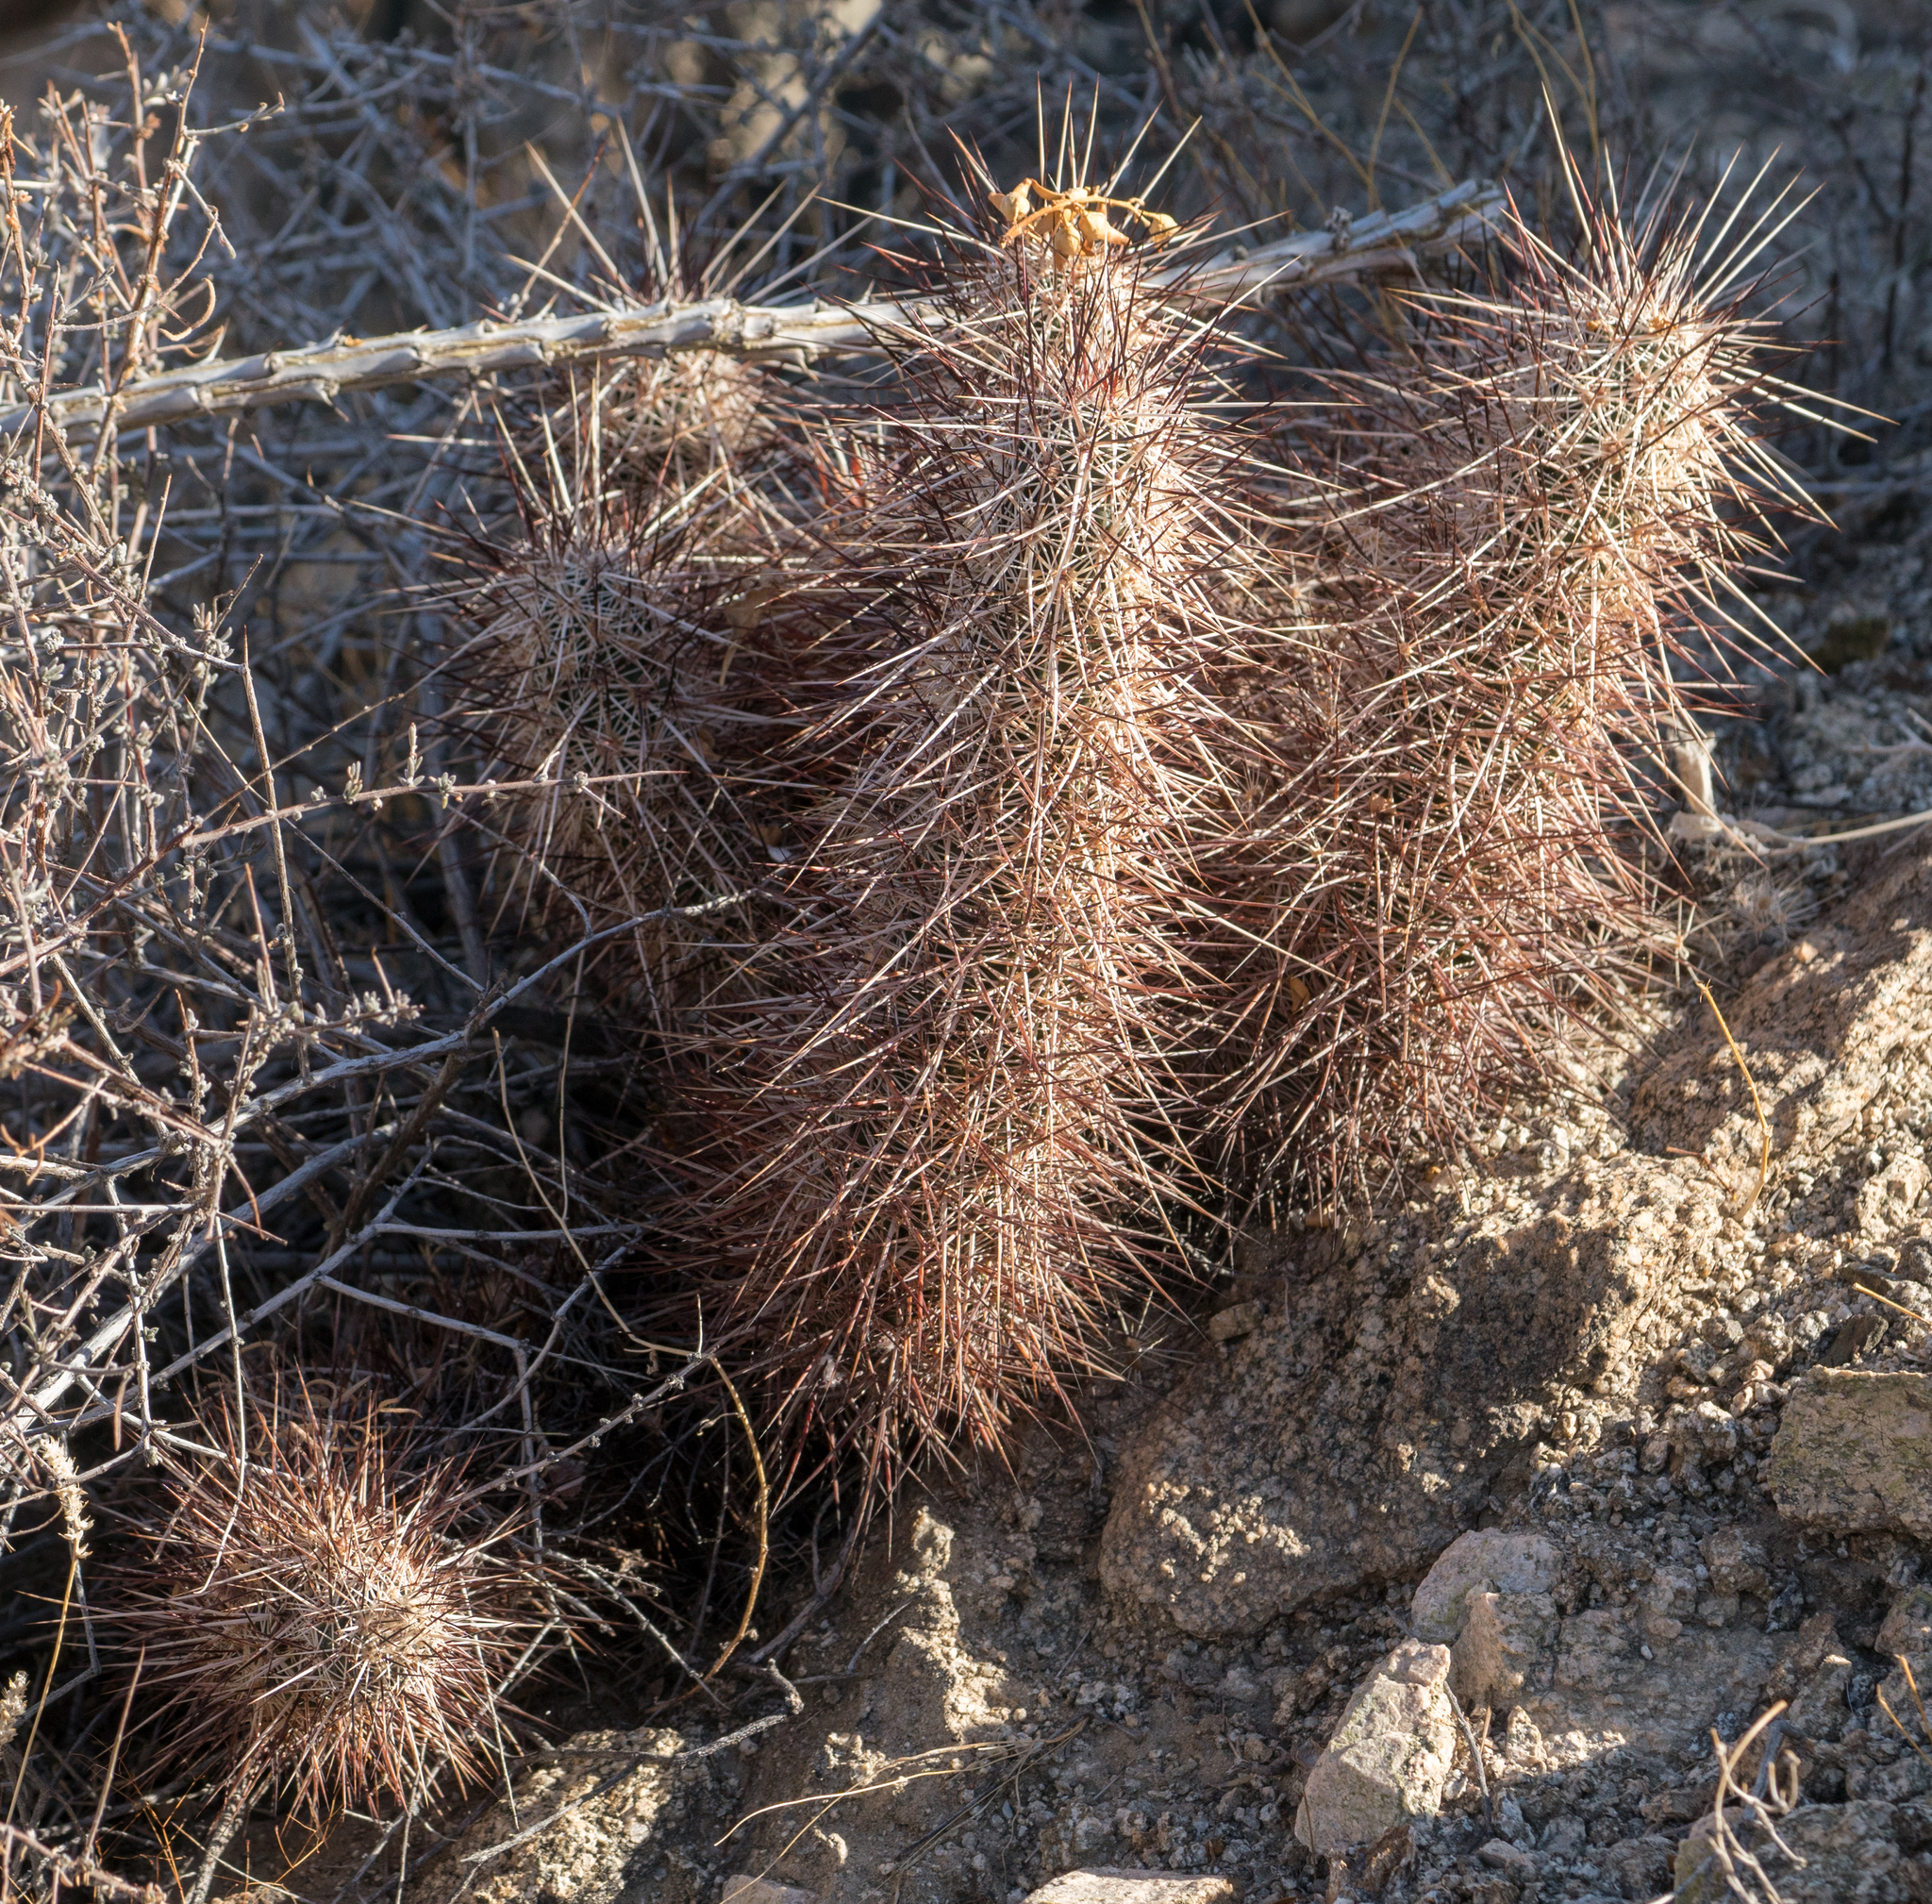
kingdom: Plantae
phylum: Tracheophyta
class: Magnoliopsida
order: Caryophyllales
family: Cactaceae
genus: Echinocereus
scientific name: Echinocereus engelmannii
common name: Engelmann's hedgehog cactus
